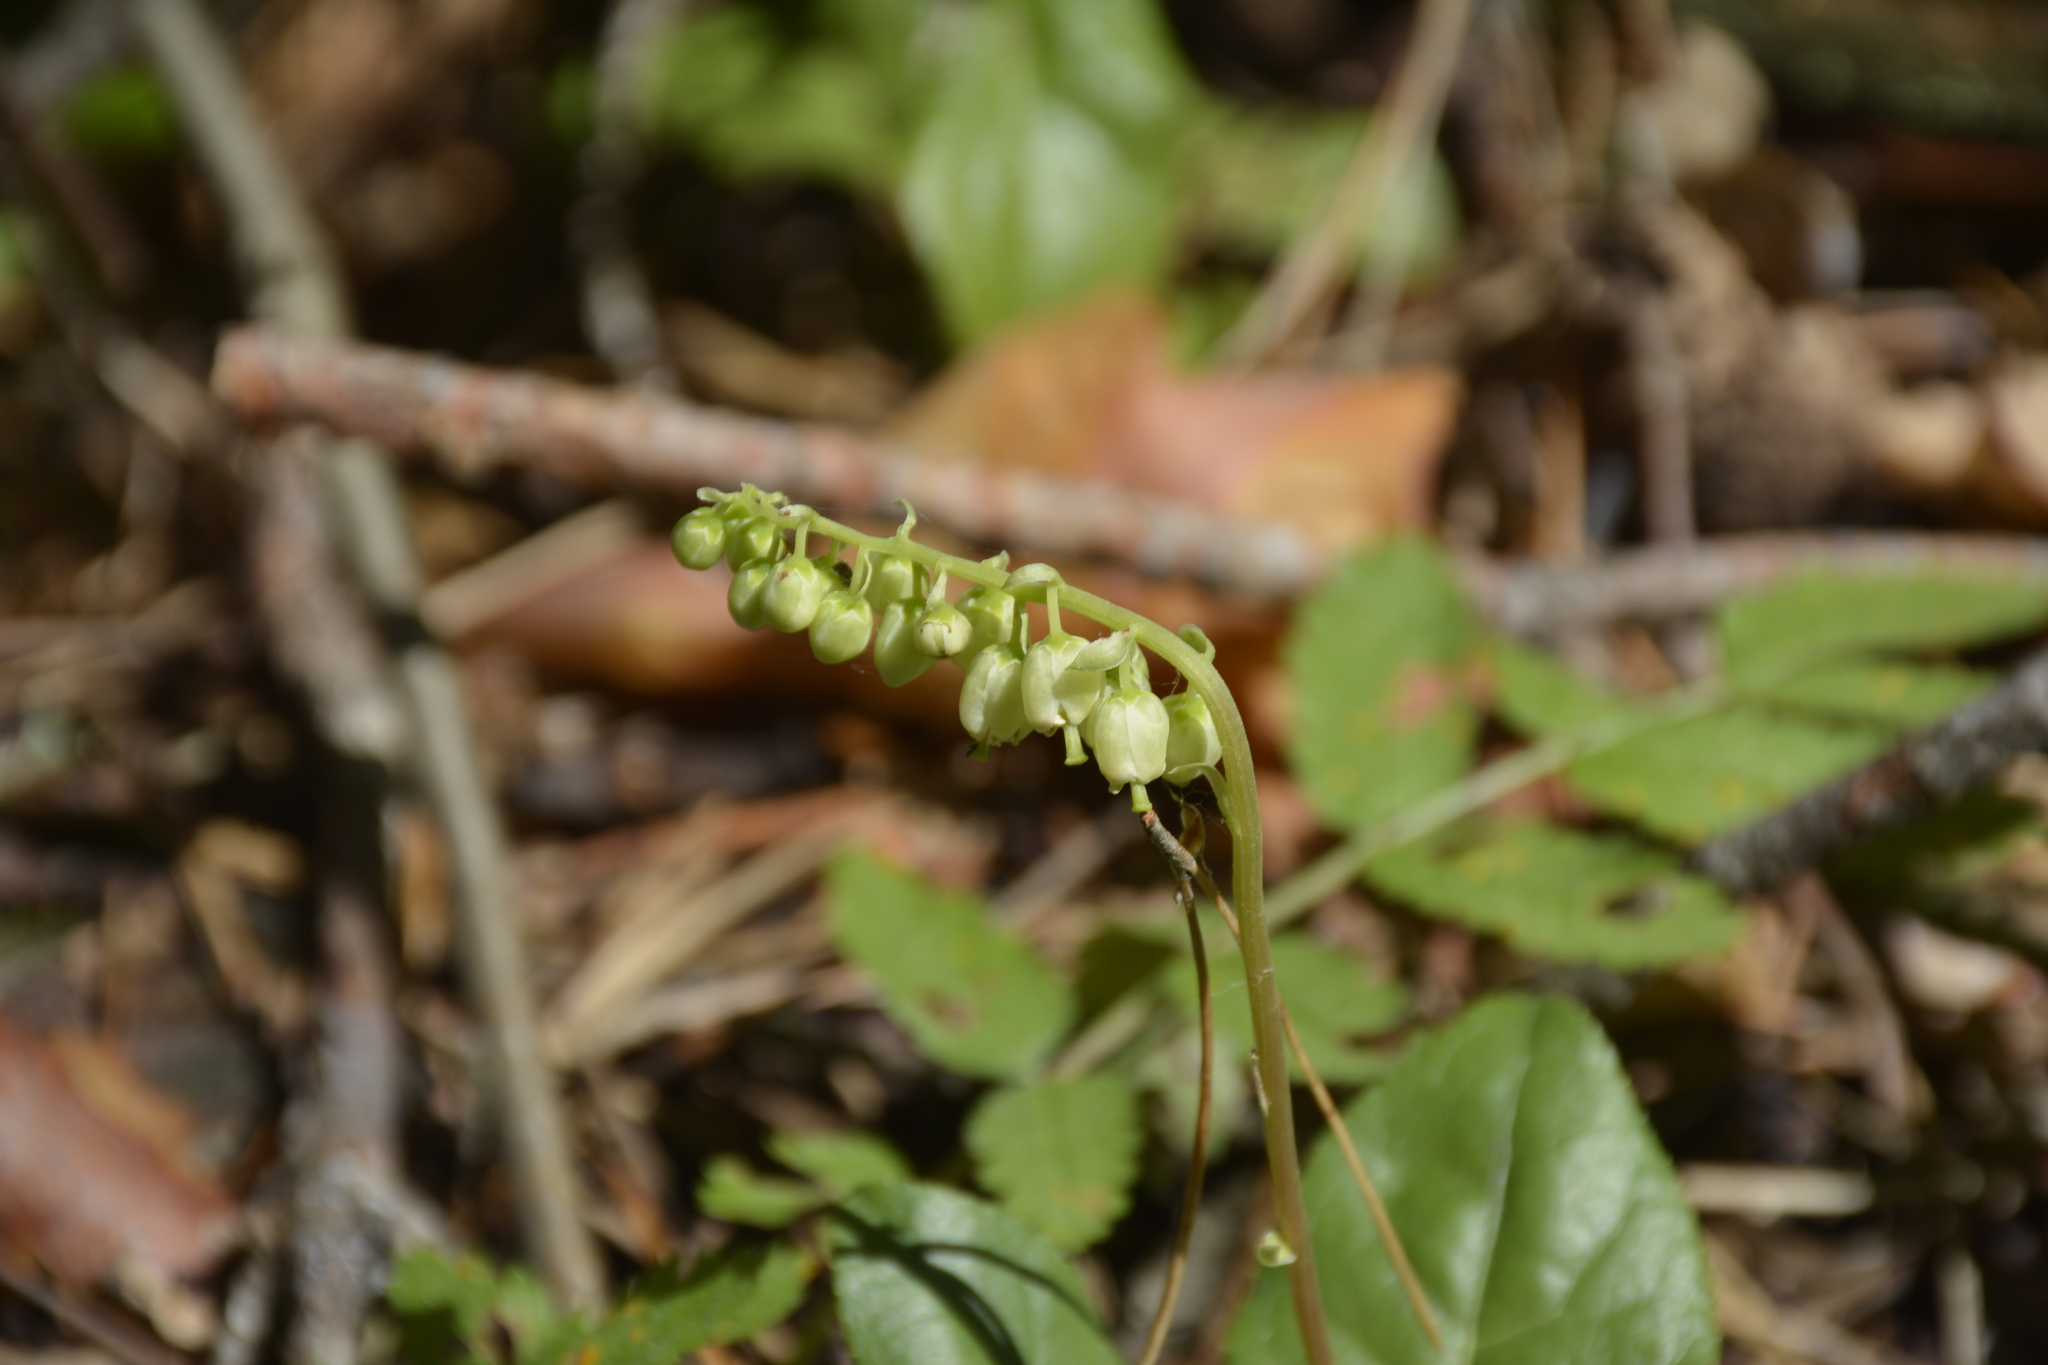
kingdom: Plantae
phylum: Tracheophyta
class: Magnoliopsida
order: Ericales
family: Ericaceae
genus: Orthilia
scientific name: Orthilia secunda
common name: One-sided orthilia
